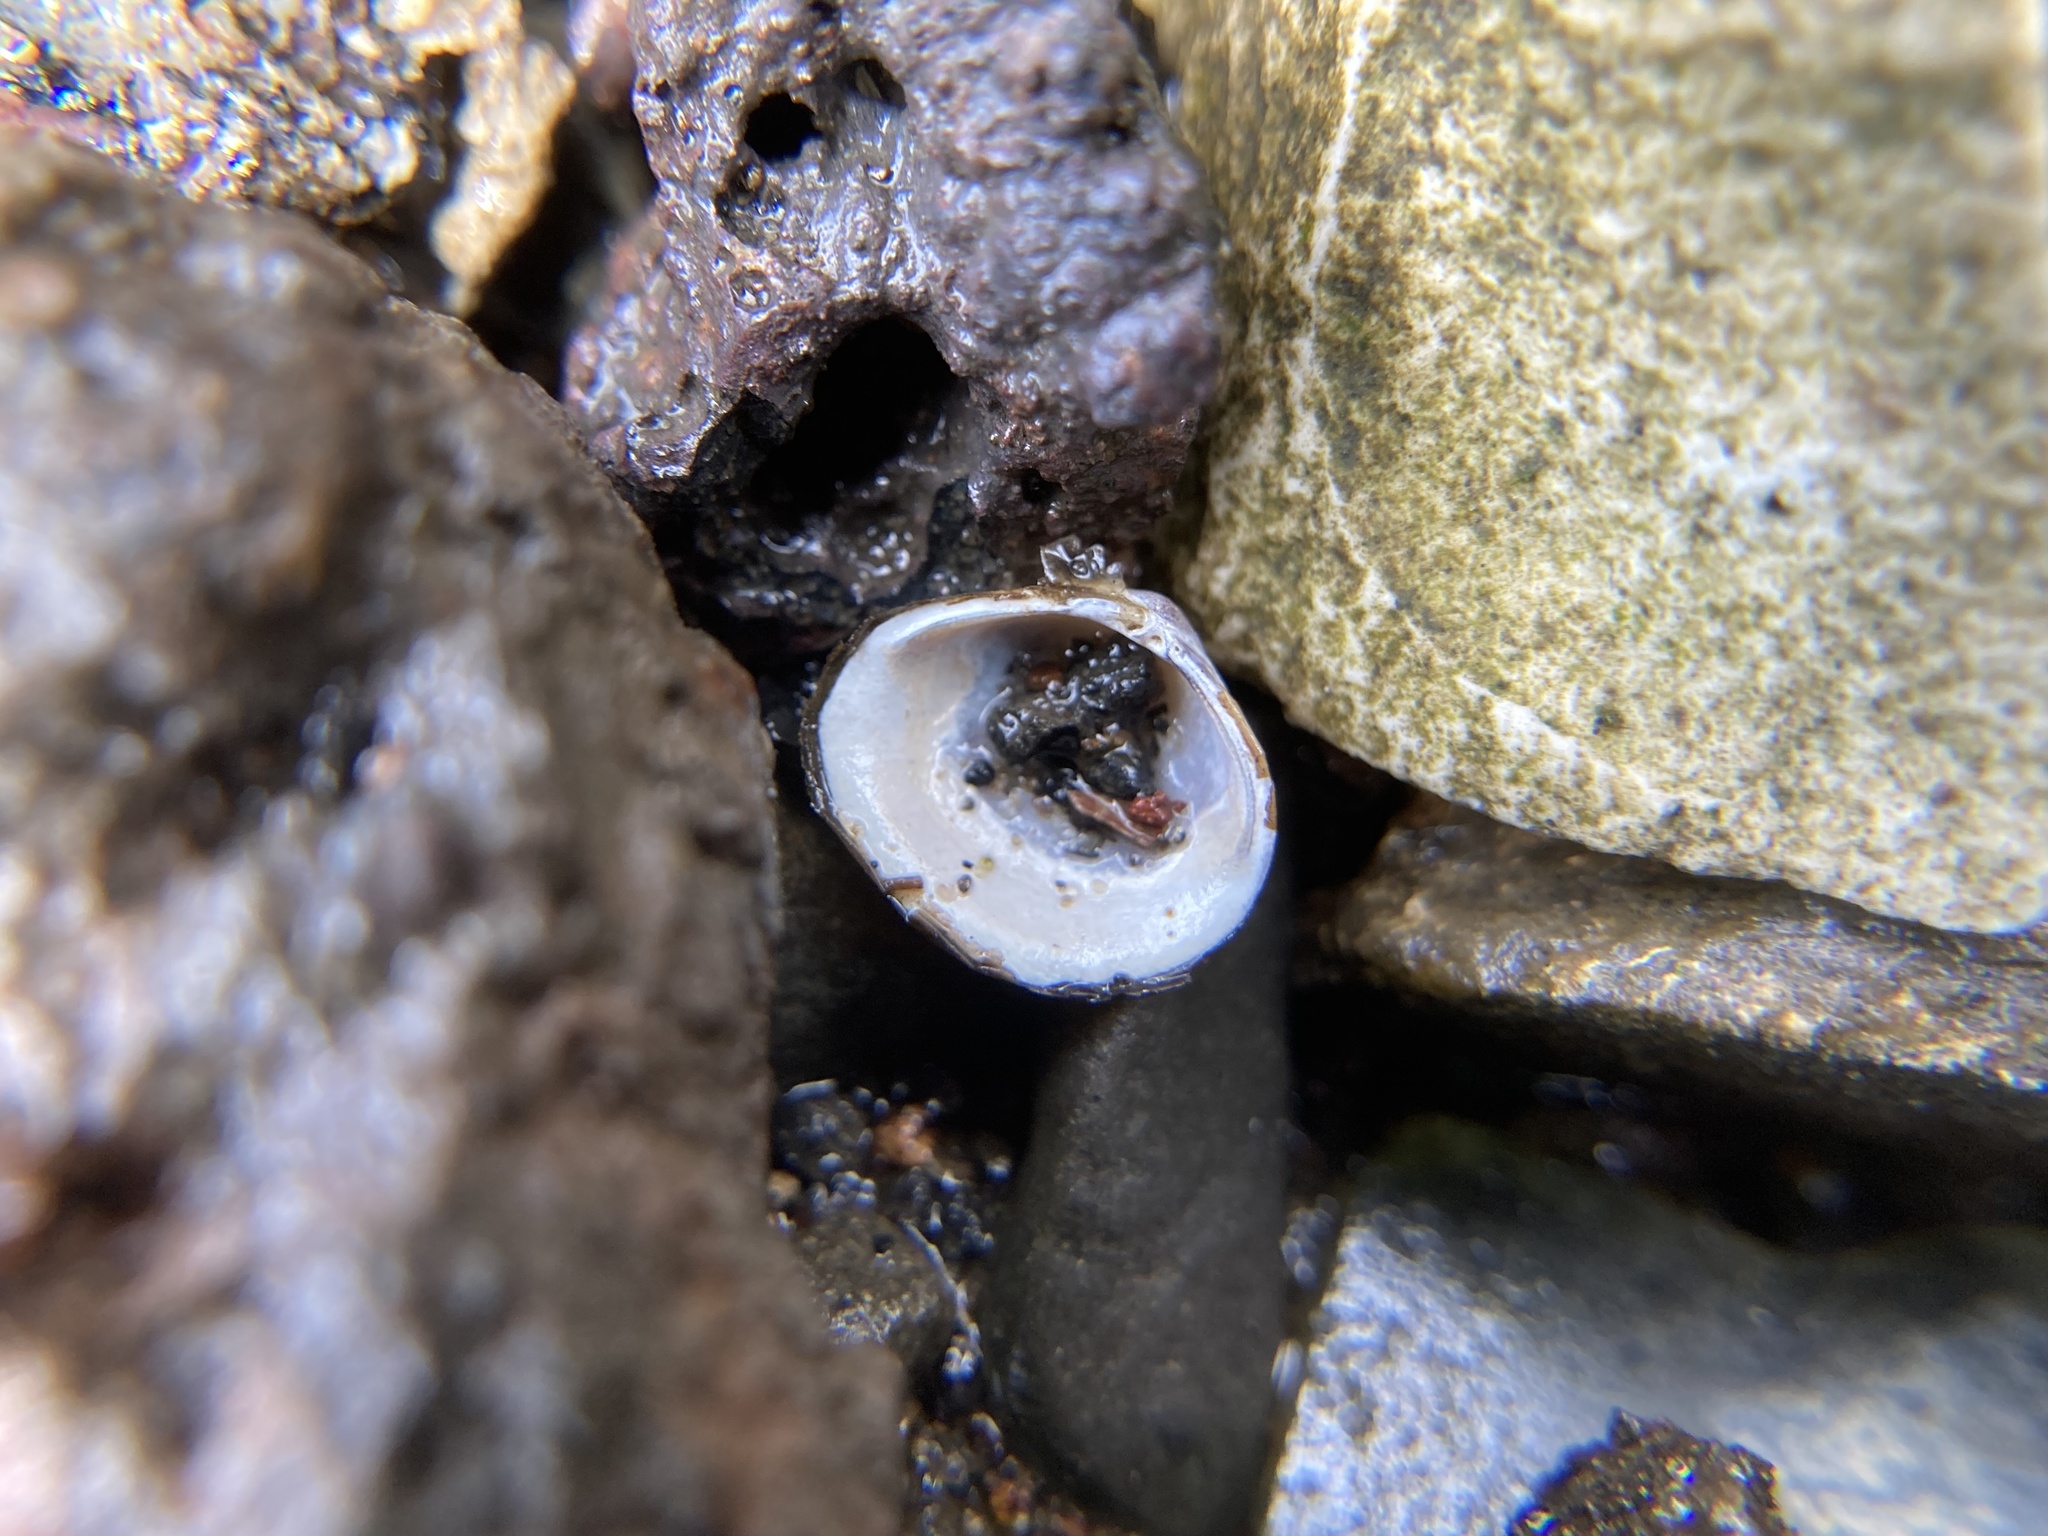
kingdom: Animalia
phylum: Mollusca
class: Bivalvia
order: Venerida
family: Cyrenidae
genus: Corbicula
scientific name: Corbicula fluminea
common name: Asian clam
